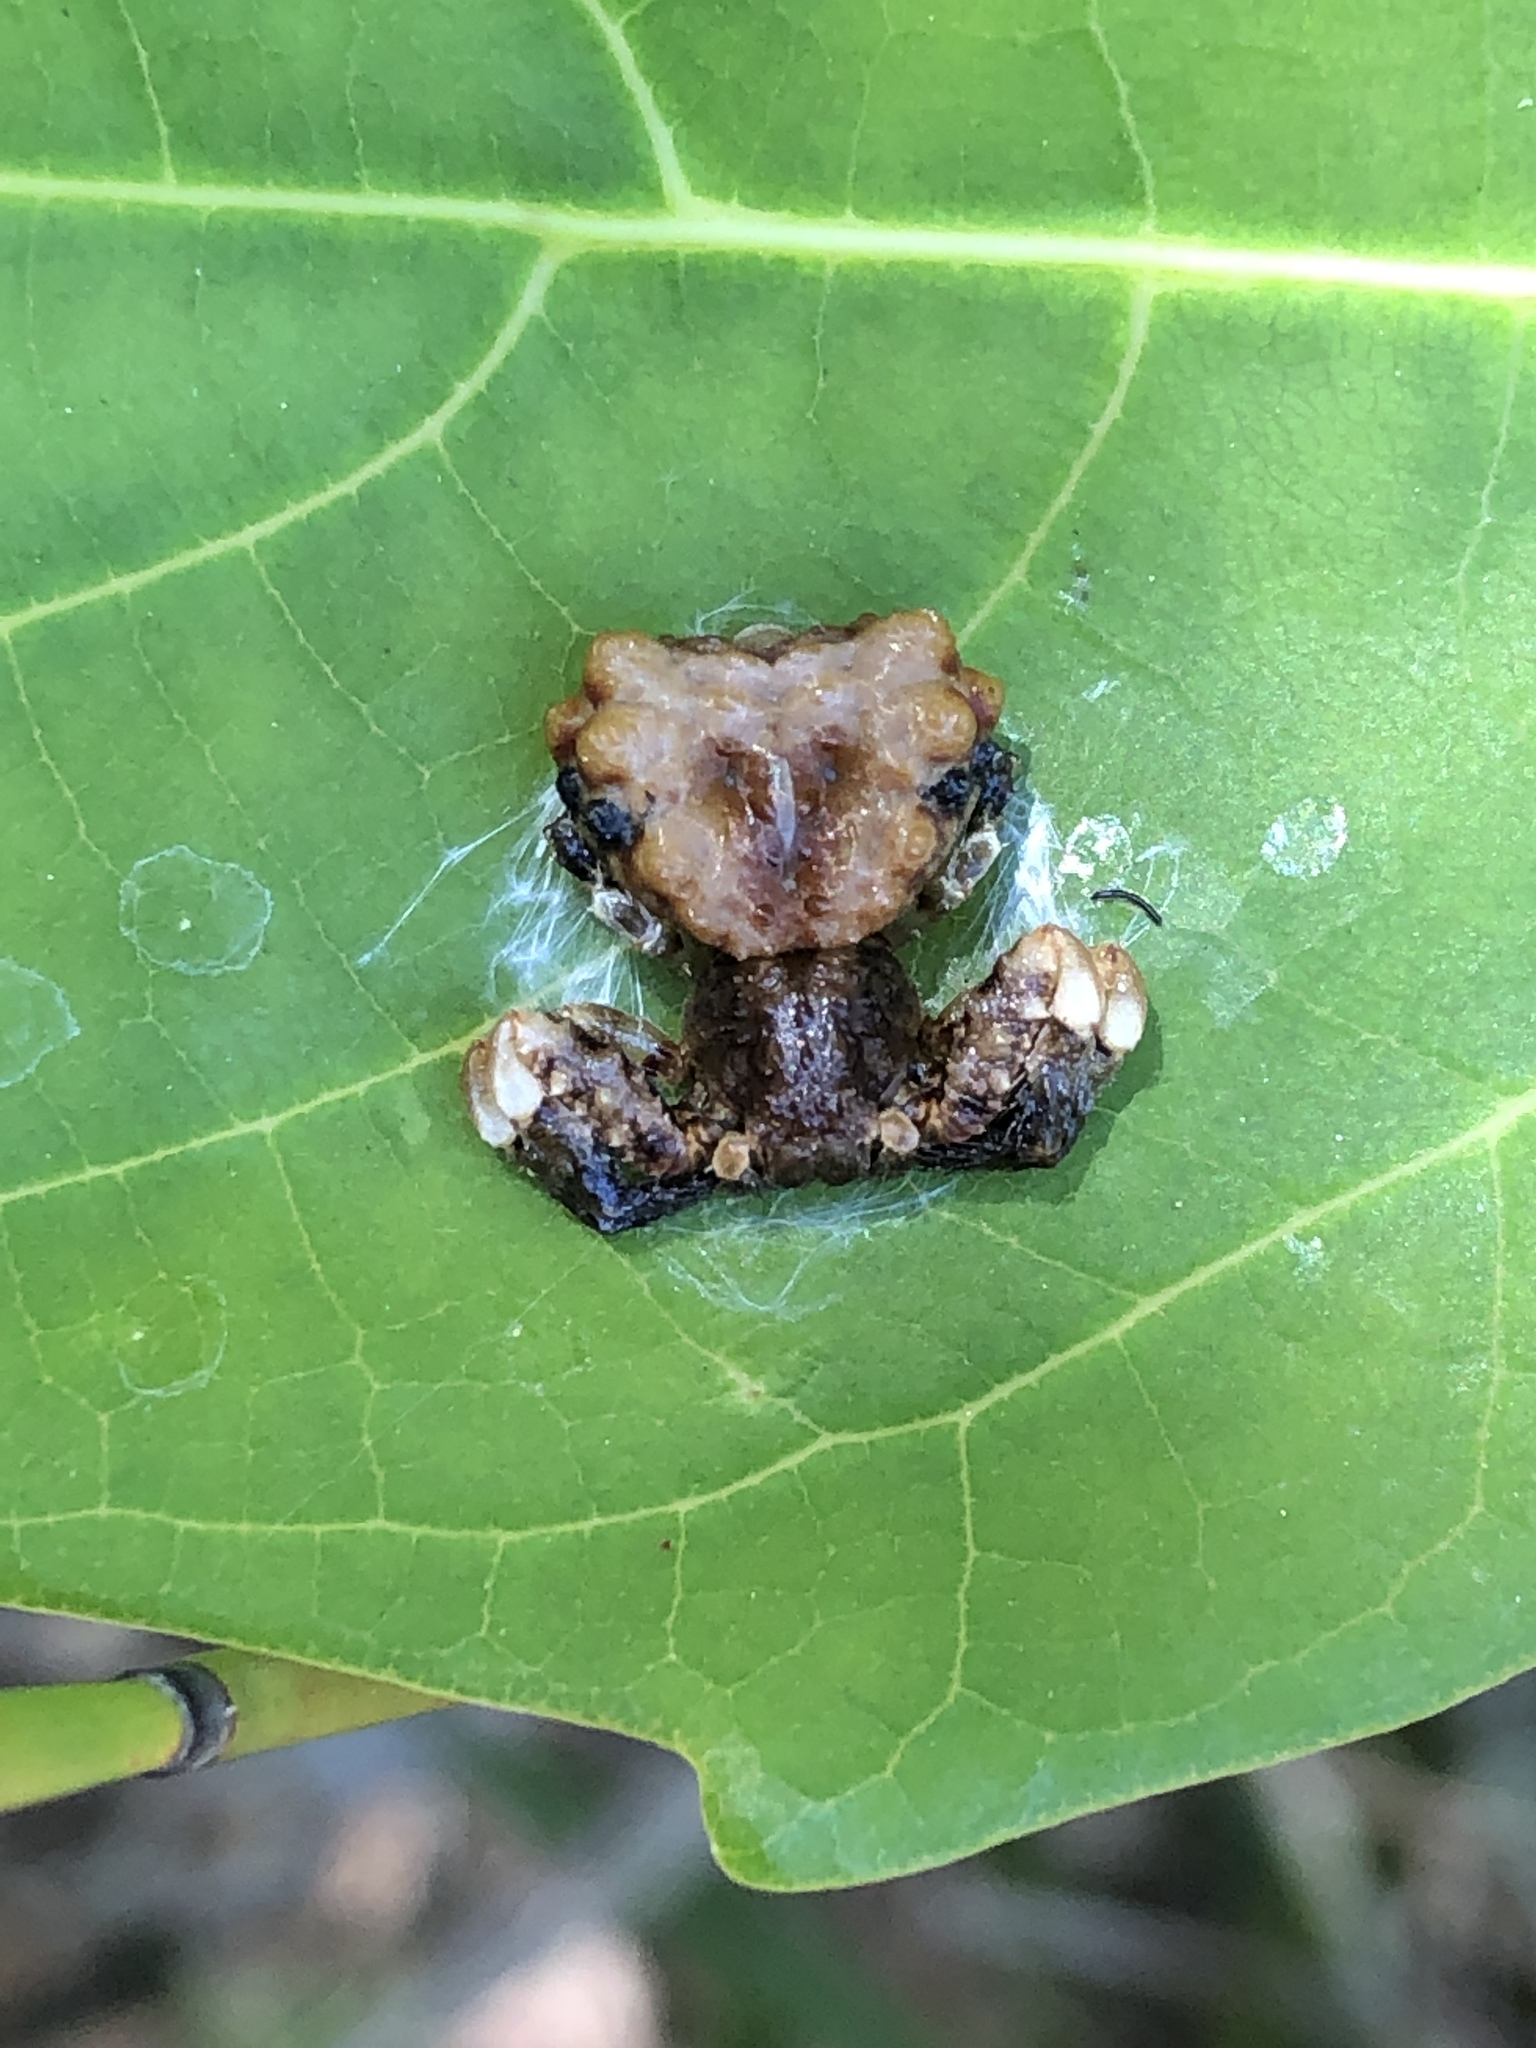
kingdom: Animalia
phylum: Arthropoda
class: Arachnida
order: Araneae
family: Thomisidae
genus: Phrynarachne
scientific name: Phrynarachne rugosa
